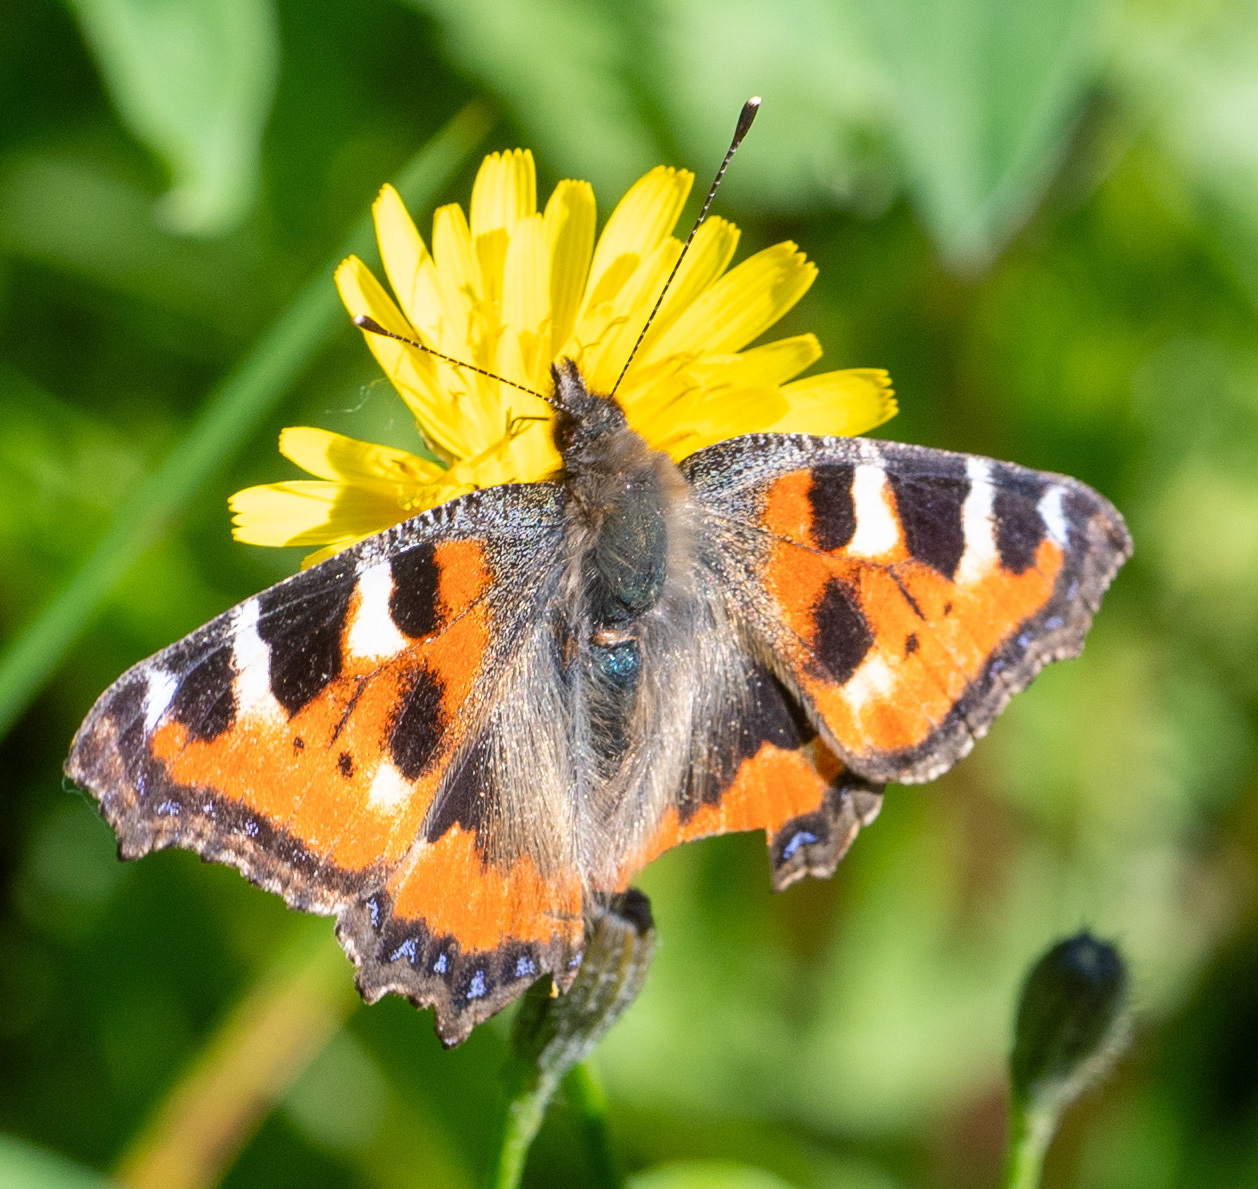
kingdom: Animalia
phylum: Arthropoda
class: Insecta
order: Lepidoptera
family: Nymphalidae
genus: Aglais
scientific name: Aglais urticae
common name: Small tortoiseshell
